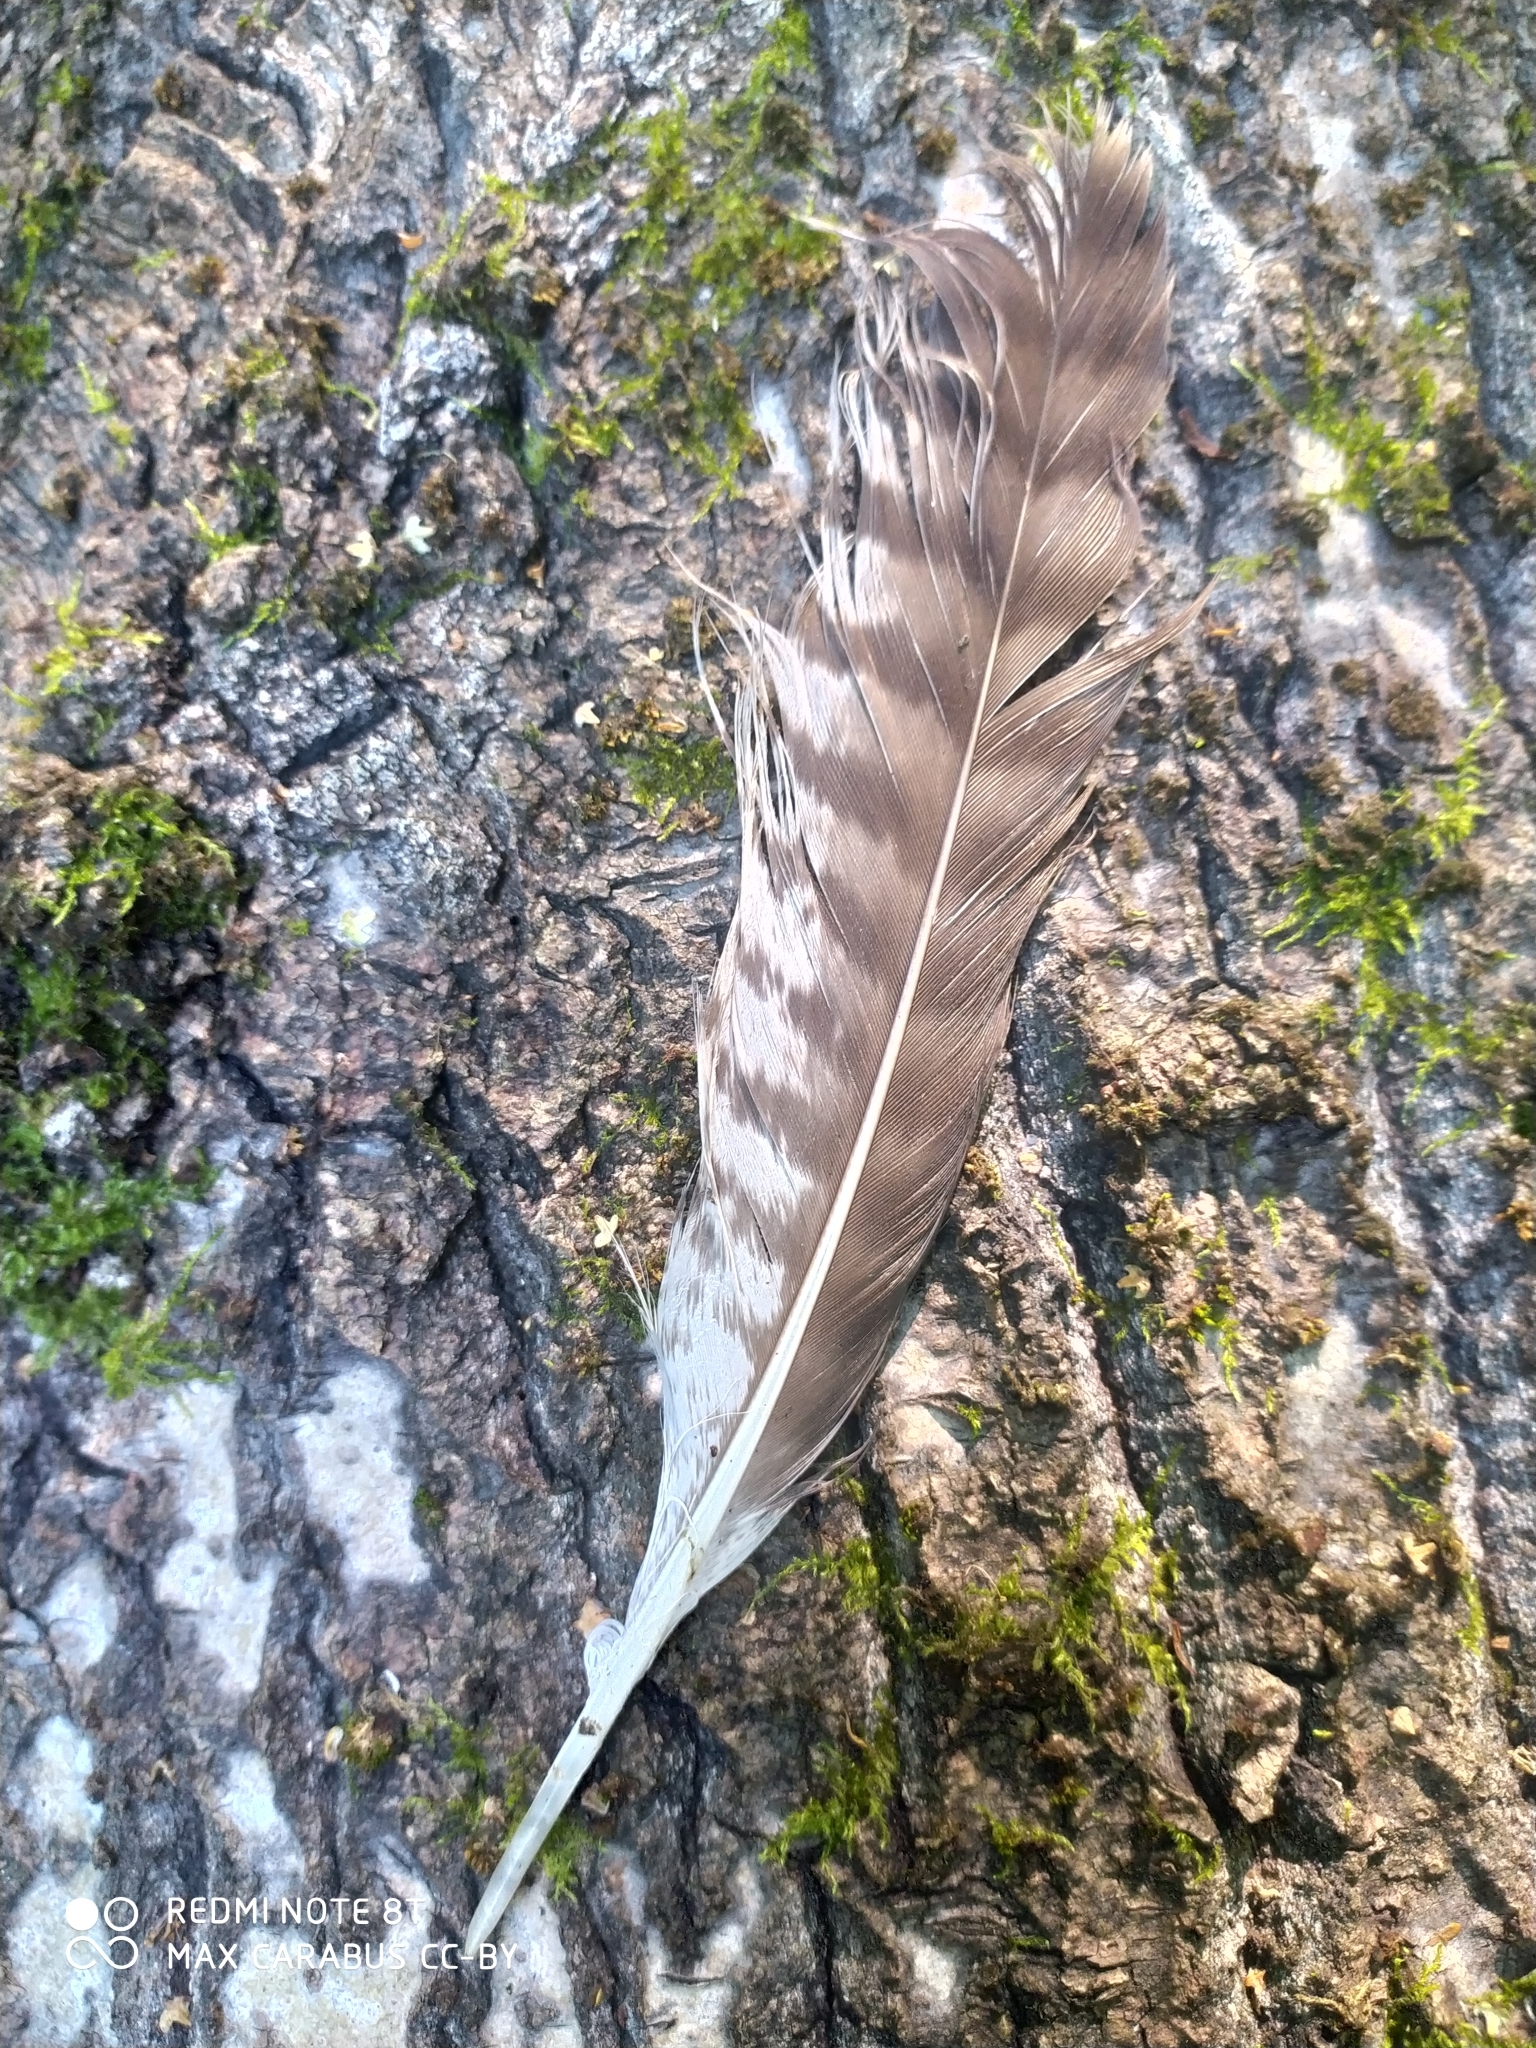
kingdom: Animalia
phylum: Chordata
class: Aves
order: Accipitriformes
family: Accipitridae
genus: Buteo
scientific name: Buteo buteo
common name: Common buzzard
